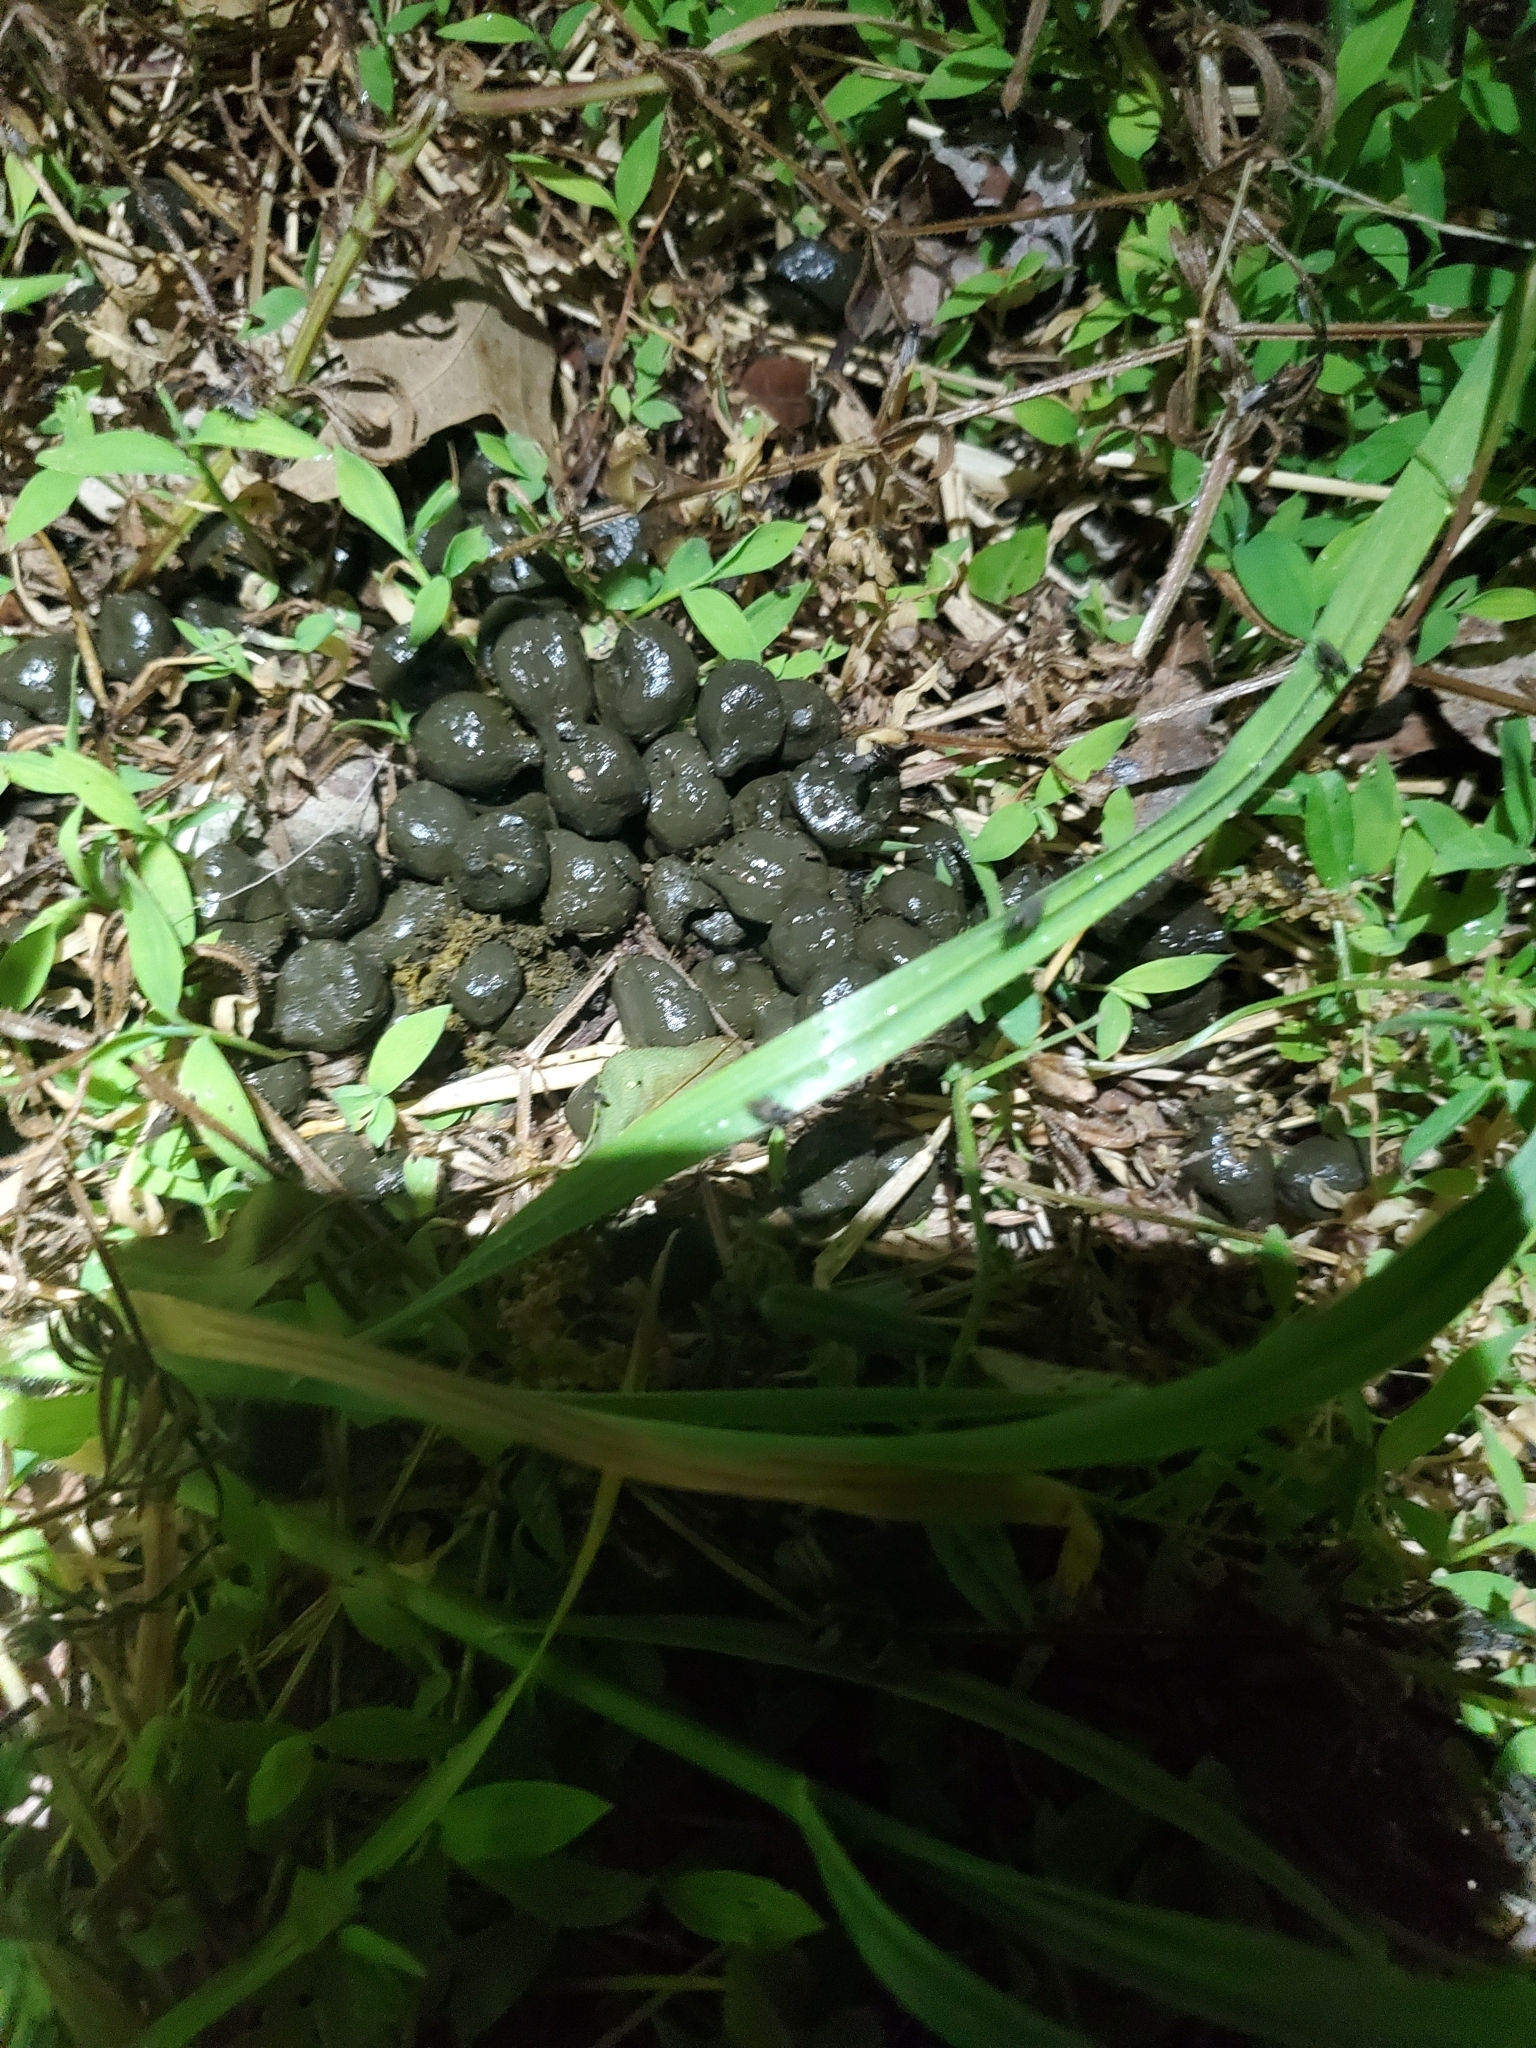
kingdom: Animalia
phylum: Chordata
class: Mammalia
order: Artiodactyla
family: Cervidae
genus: Odocoileus
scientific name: Odocoileus virginianus
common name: White-tailed deer
